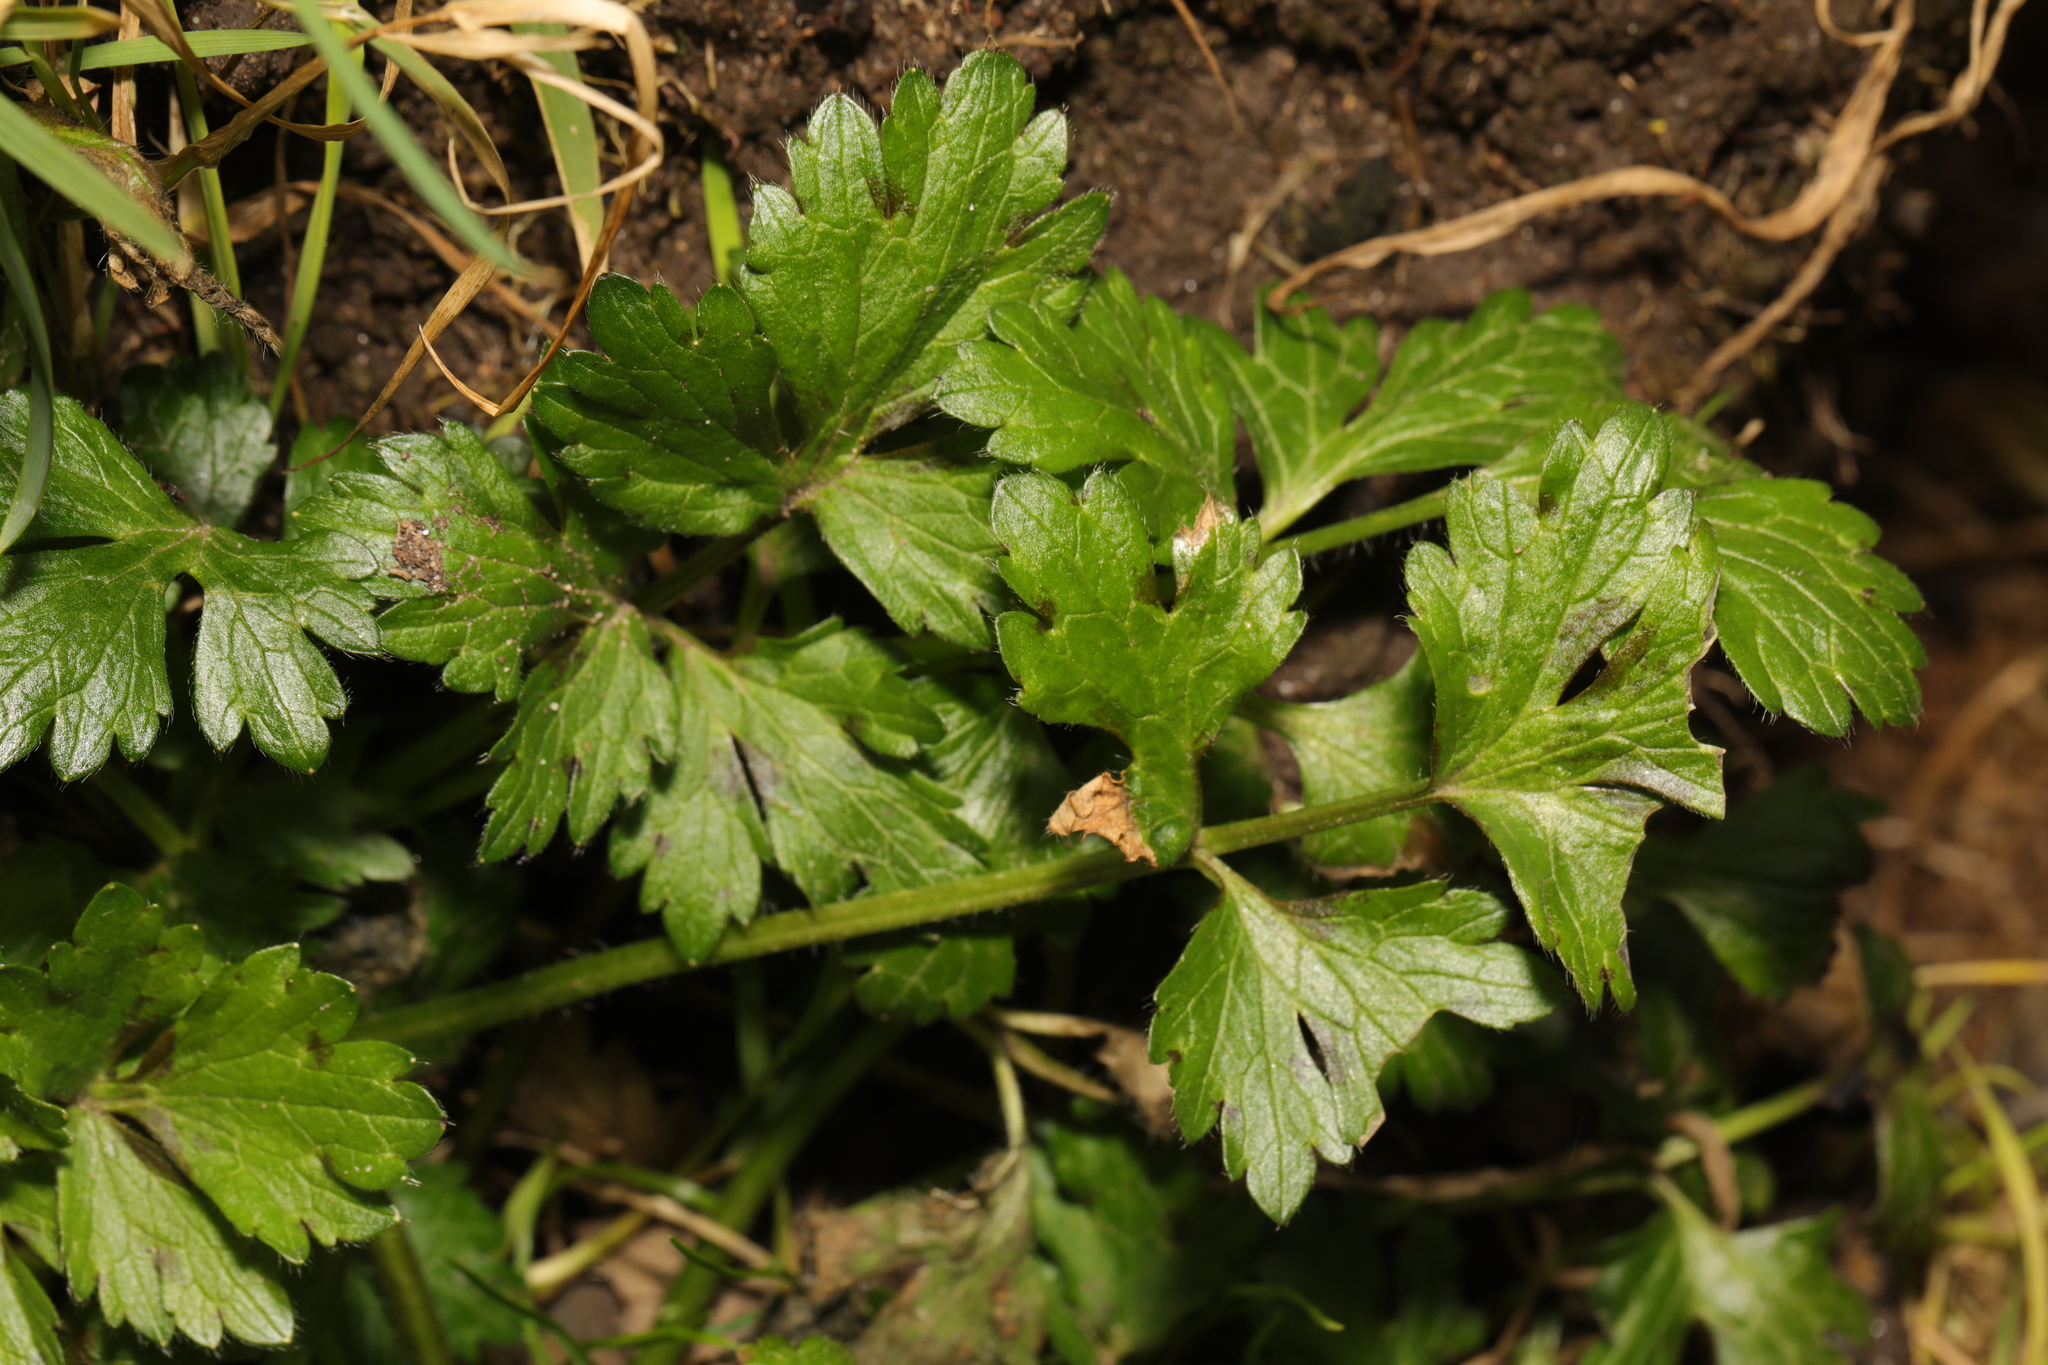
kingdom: Plantae
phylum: Tracheophyta
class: Magnoliopsida
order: Ranunculales
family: Ranunculaceae
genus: Ranunculus
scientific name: Ranunculus repens
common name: Creeping buttercup
